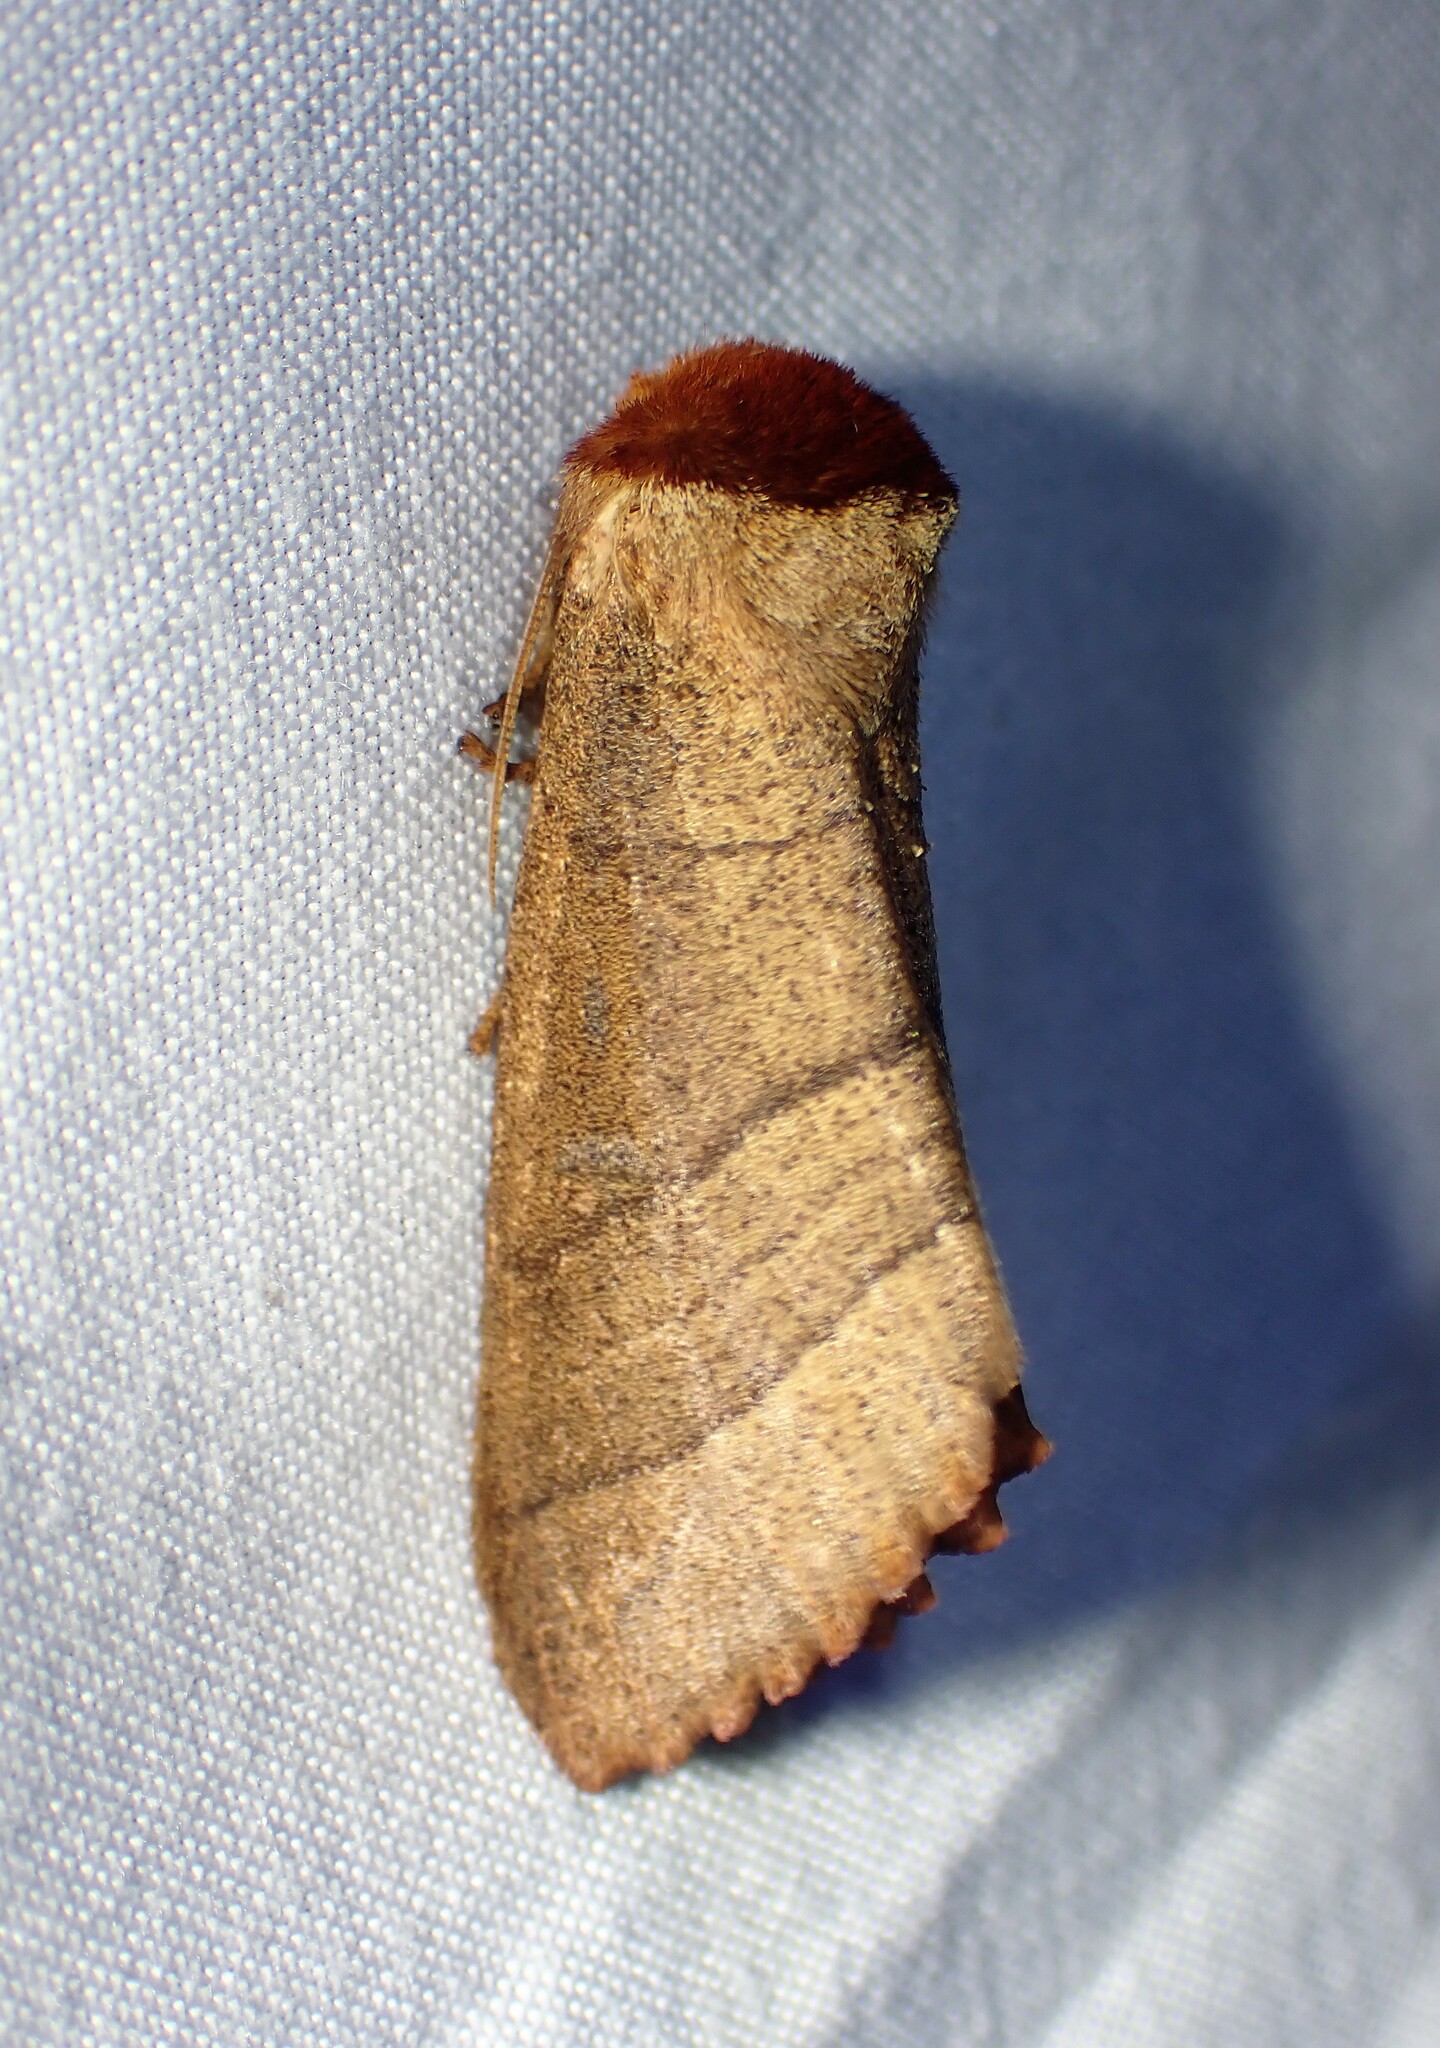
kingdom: Animalia
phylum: Arthropoda
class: Insecta
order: Lepidoptera
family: Notodontidae
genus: Datana
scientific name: Datana ministra
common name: Yellow-necked caterpillar moth
